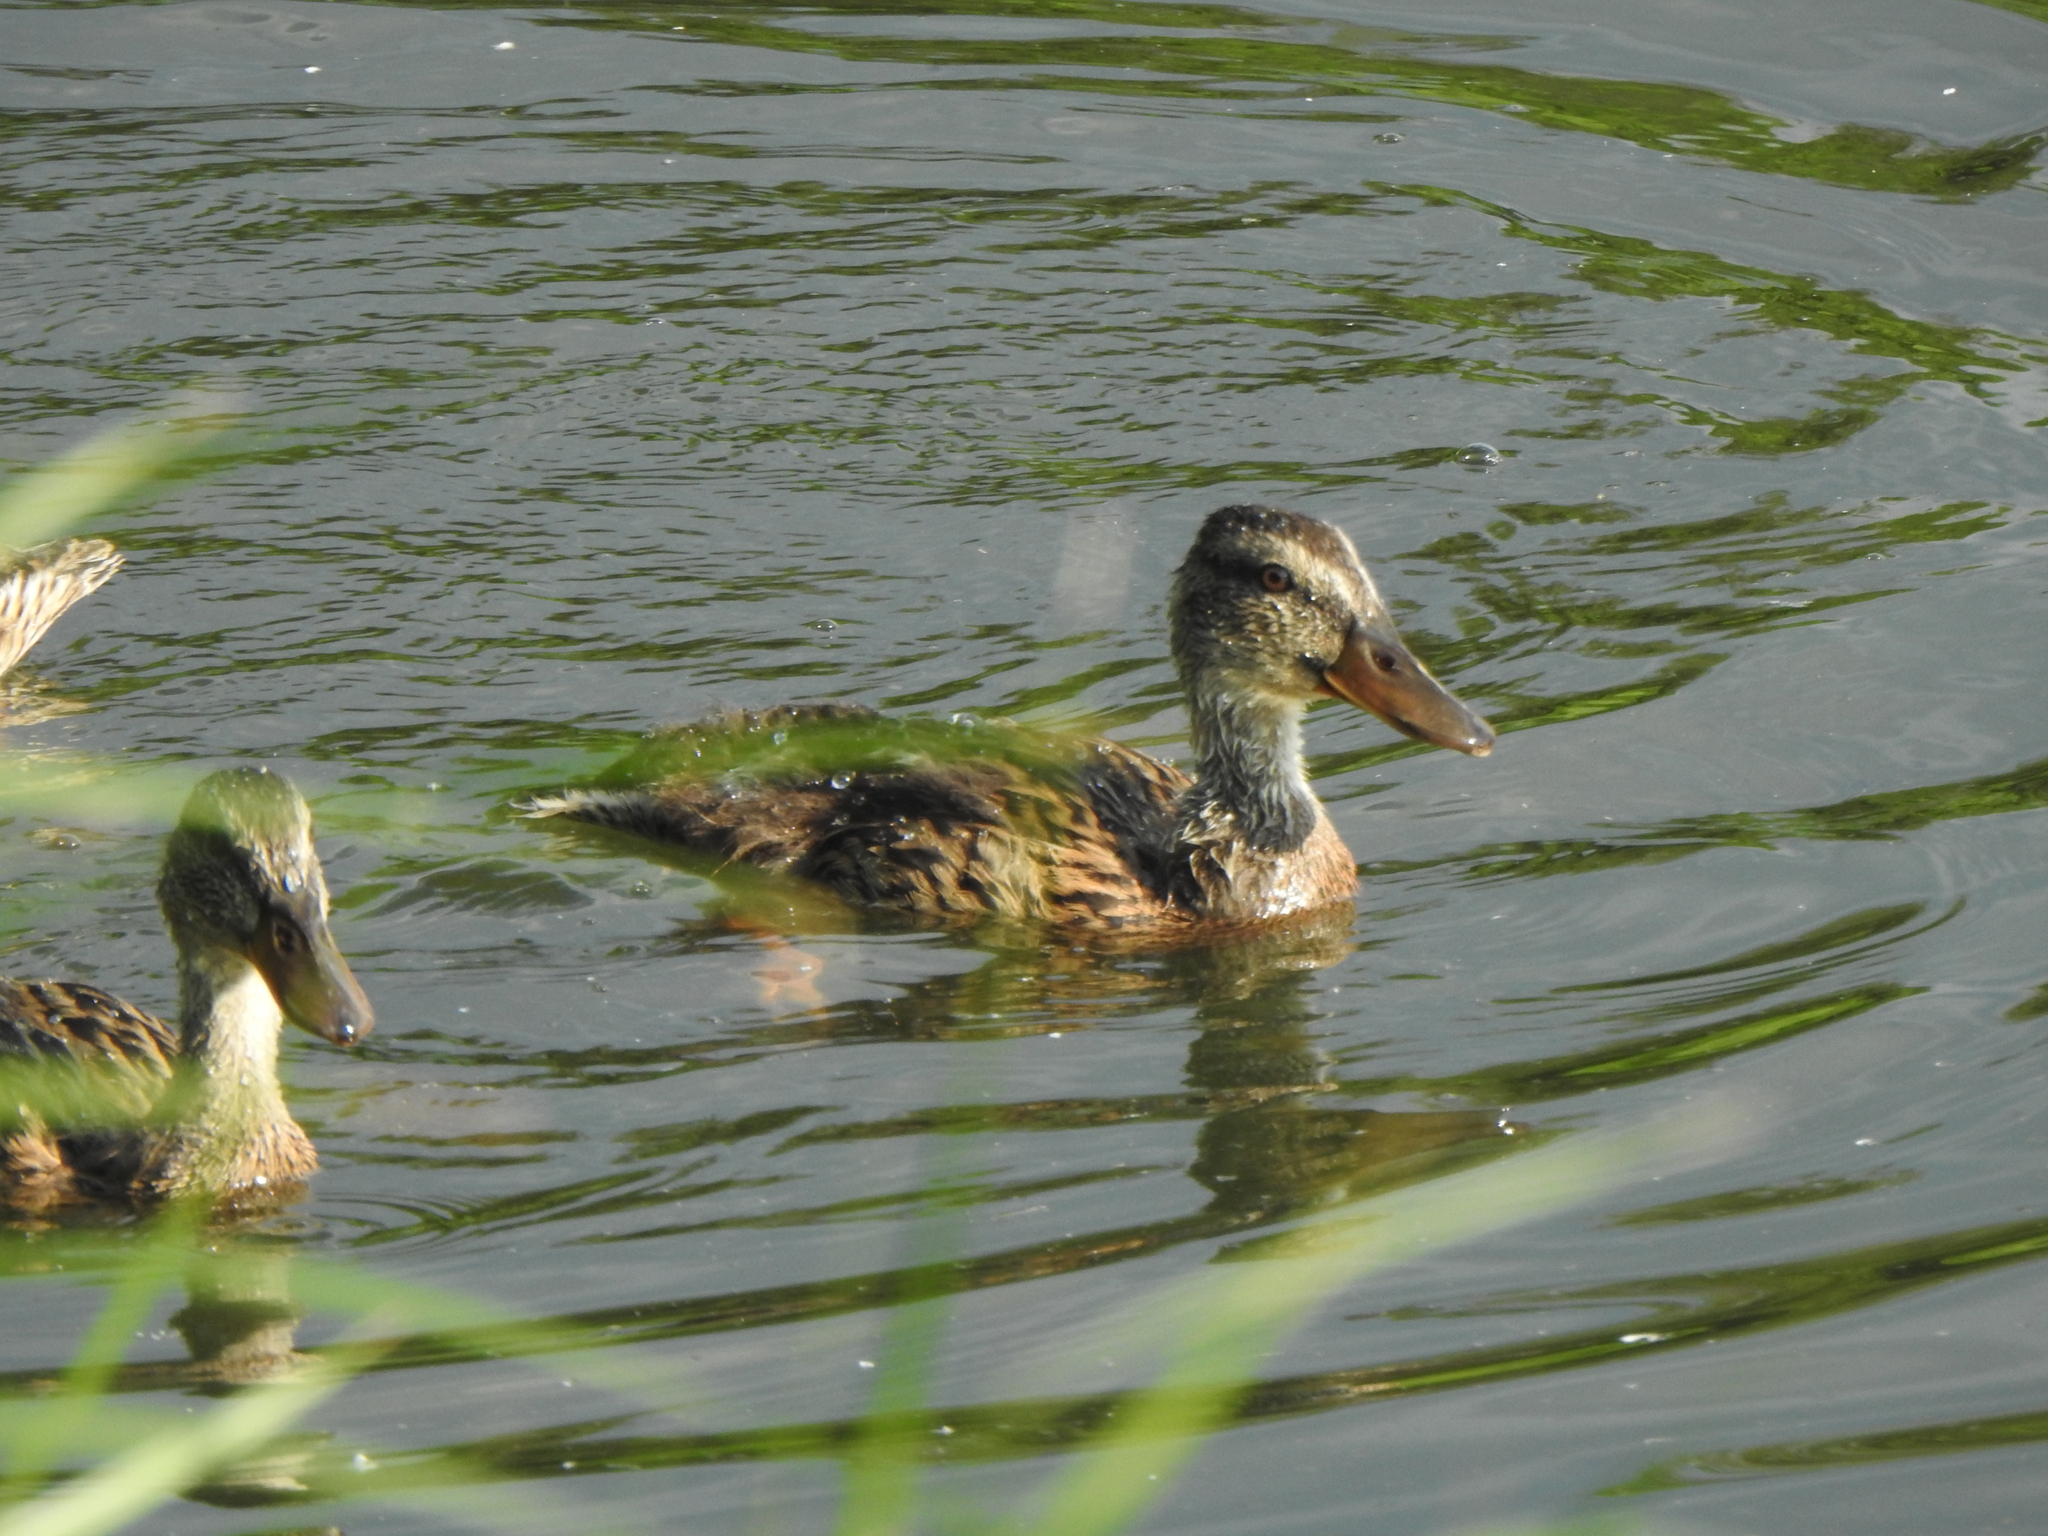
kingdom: Animalia
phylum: Chordata
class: Aves
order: Anseriformes
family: Anatidae
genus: Anas
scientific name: Anas platyrhynchos
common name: Mallard
